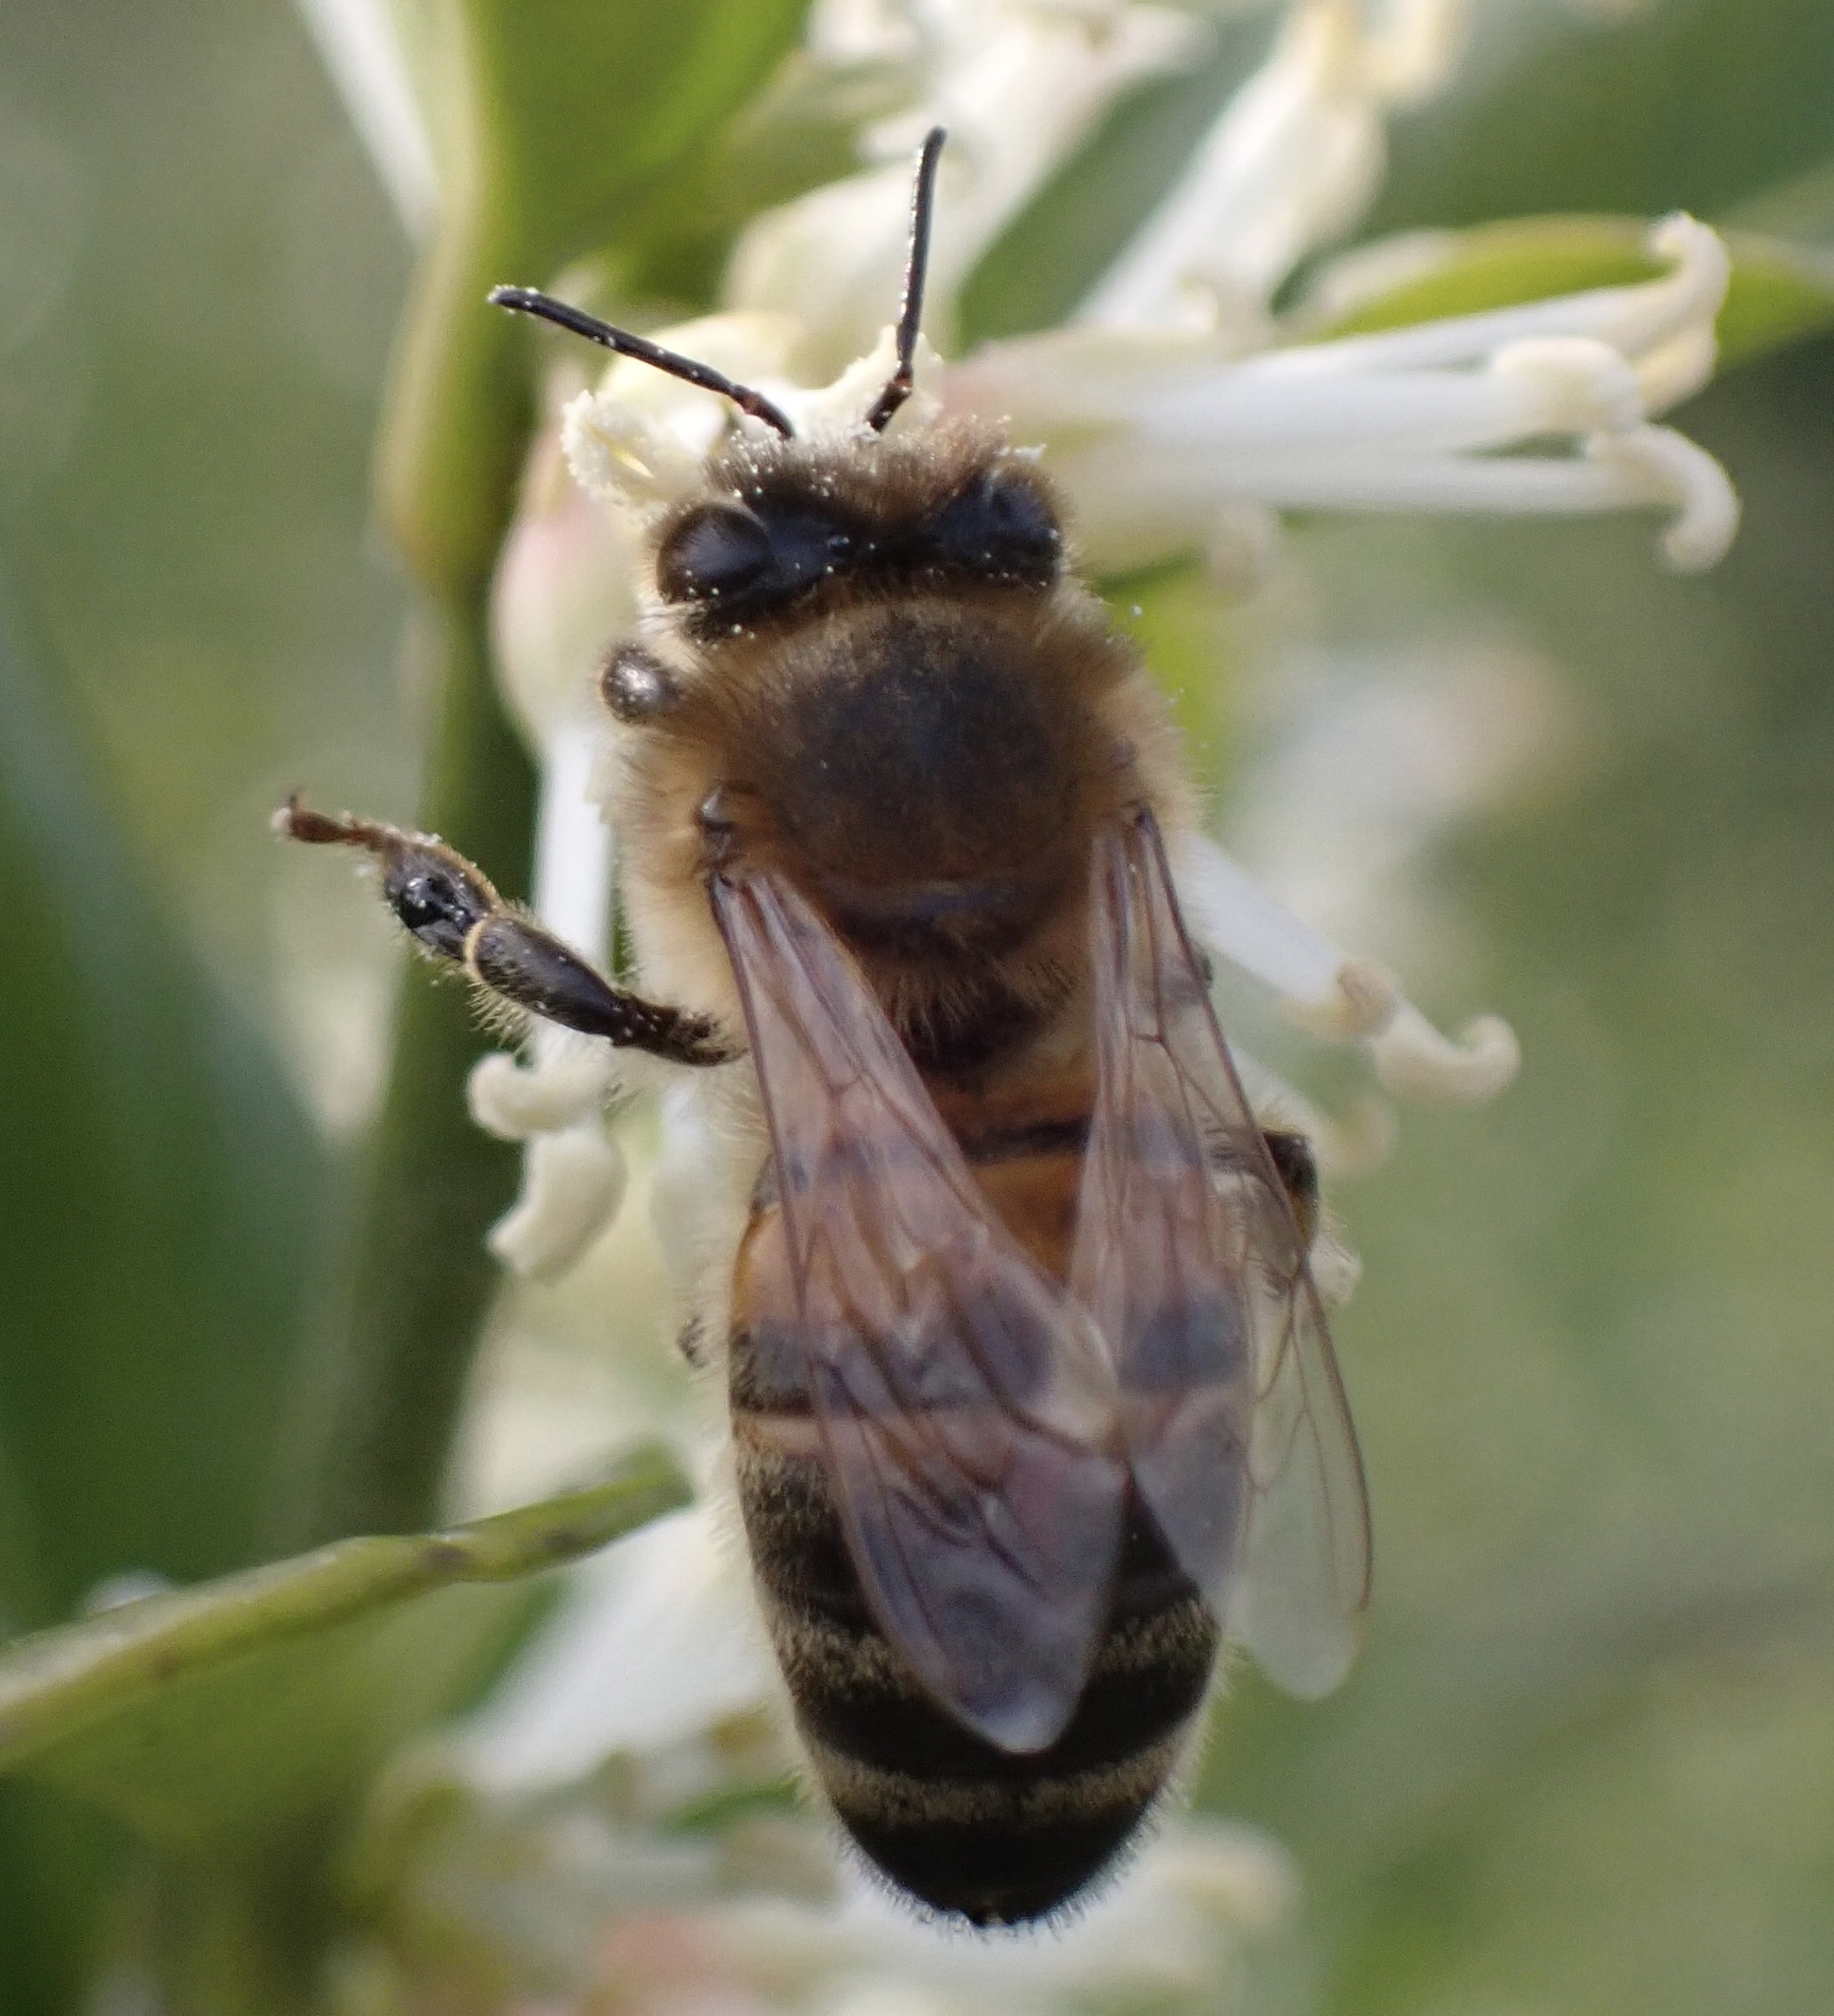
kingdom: Animalia
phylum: Arthropoda
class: Insecta
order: Hymenoptera
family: Apidae
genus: Apis
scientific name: Apis mellifera
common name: Honey bee
